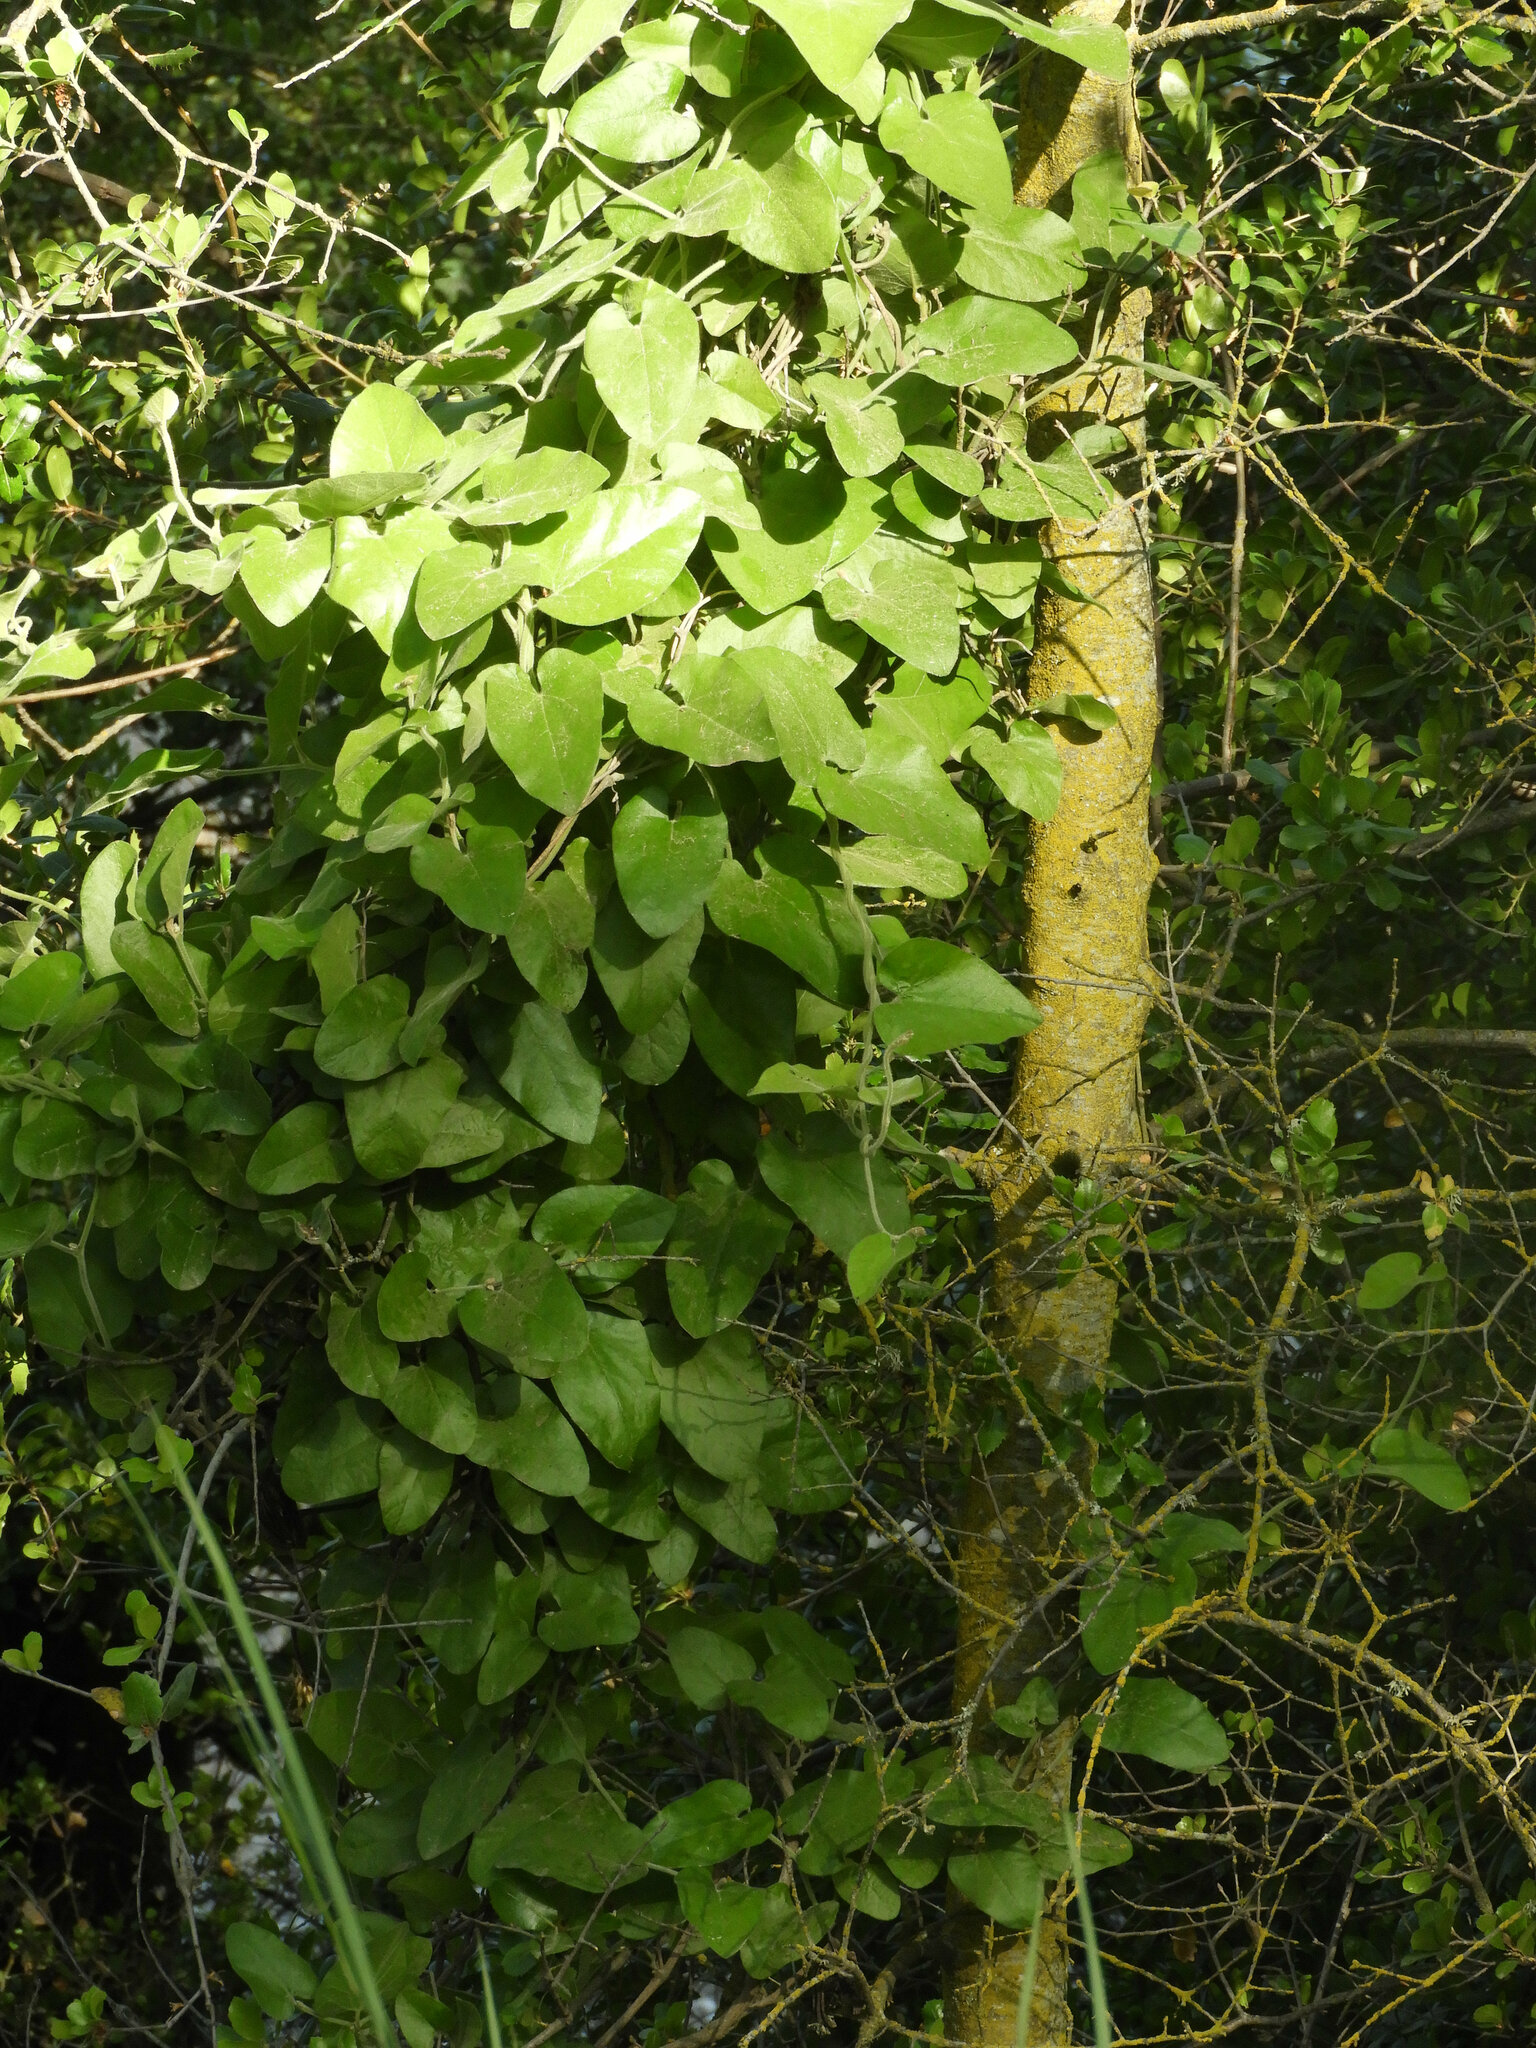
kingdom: Plantae
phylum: Tracheophyta
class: Magnoliopsida
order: Piperales
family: Aristolochiaceae
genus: Isotrema
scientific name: Isotrema californicum
